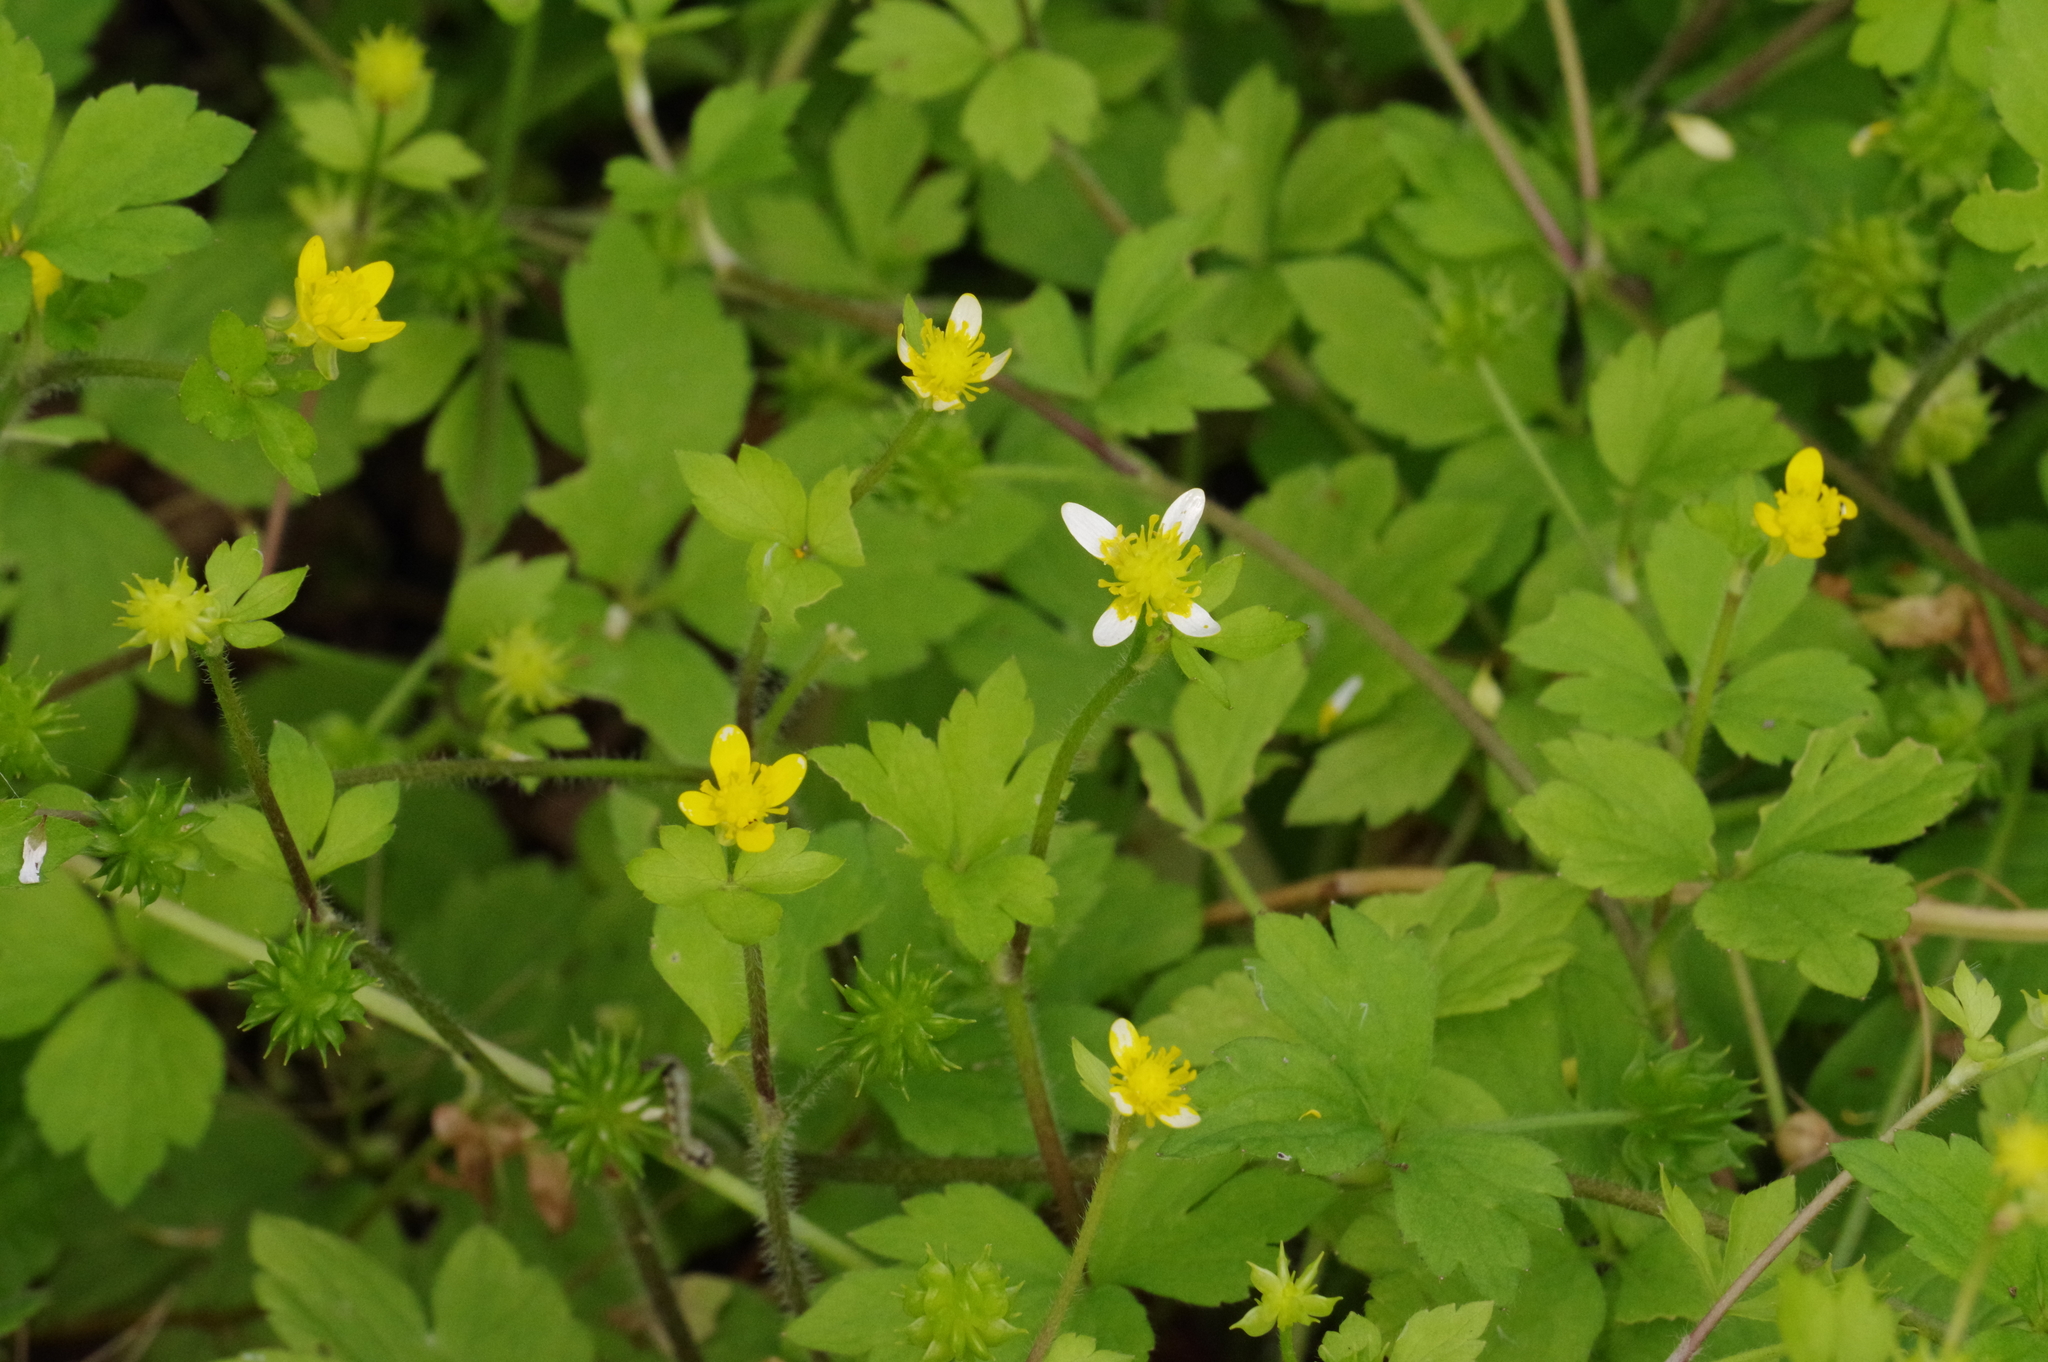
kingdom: Plantae
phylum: Tracheophyta
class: Magnoliopsida
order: Ranunculales
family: Ranunculaceae
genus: Ranunculus
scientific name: Ranunculus sieboldii
